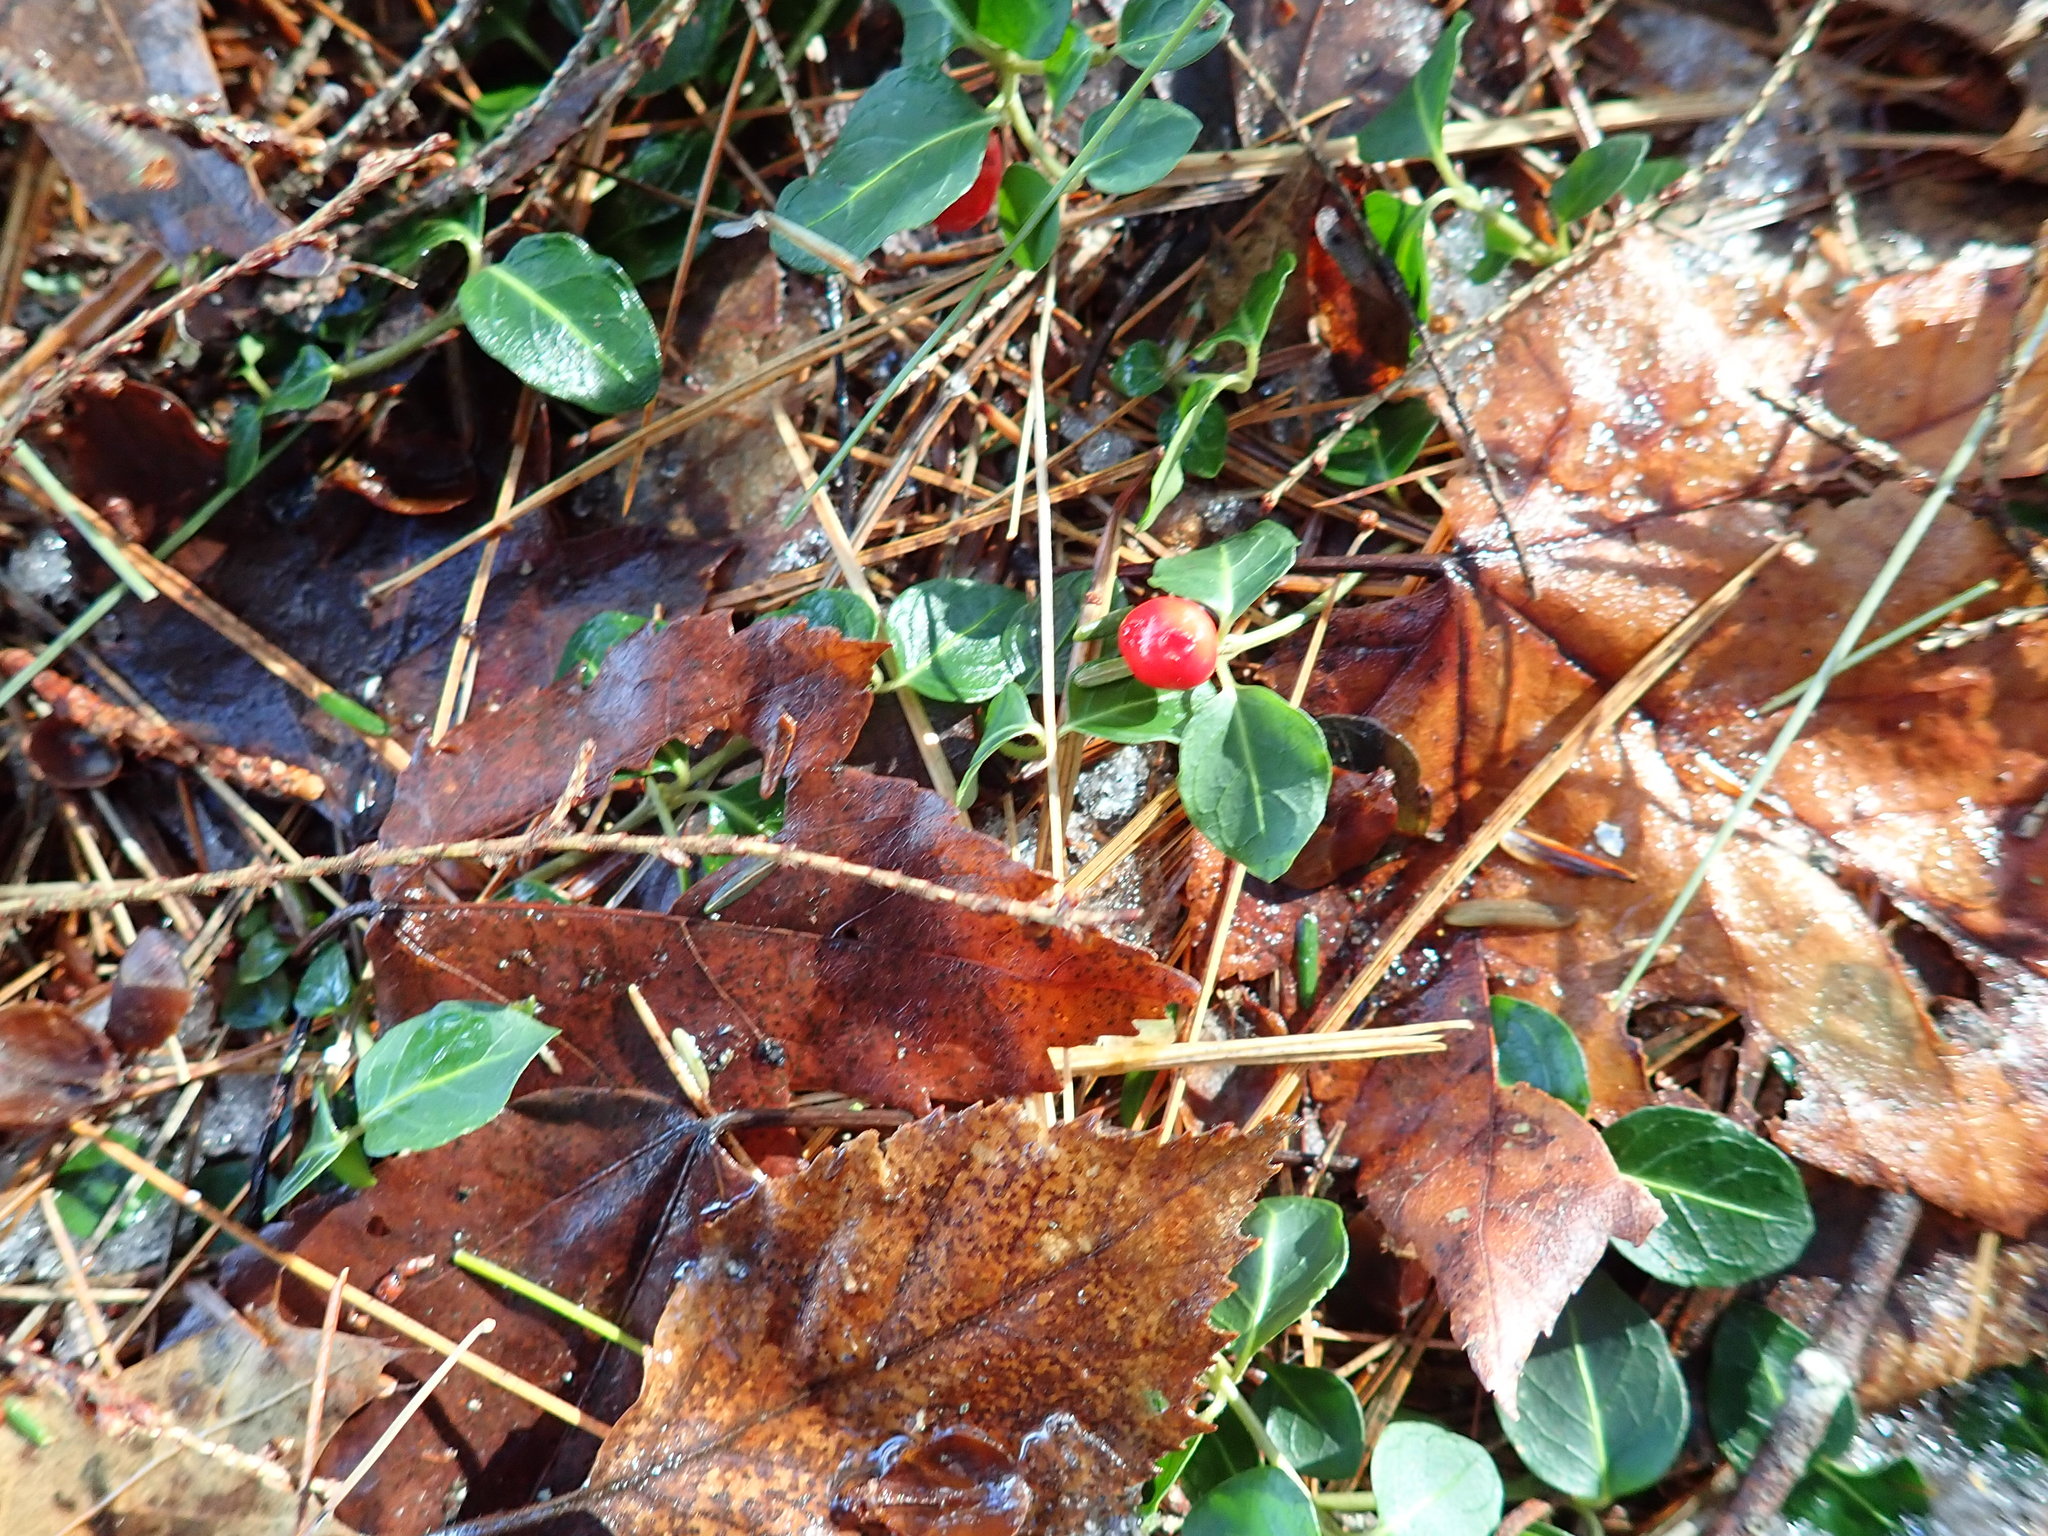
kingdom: Plantae
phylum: Tracheophyta
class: Magnoliopsida
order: Gentianales
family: Rubiaceae
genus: Mitchella
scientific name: Mitchella repens
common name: Partridge-berry
